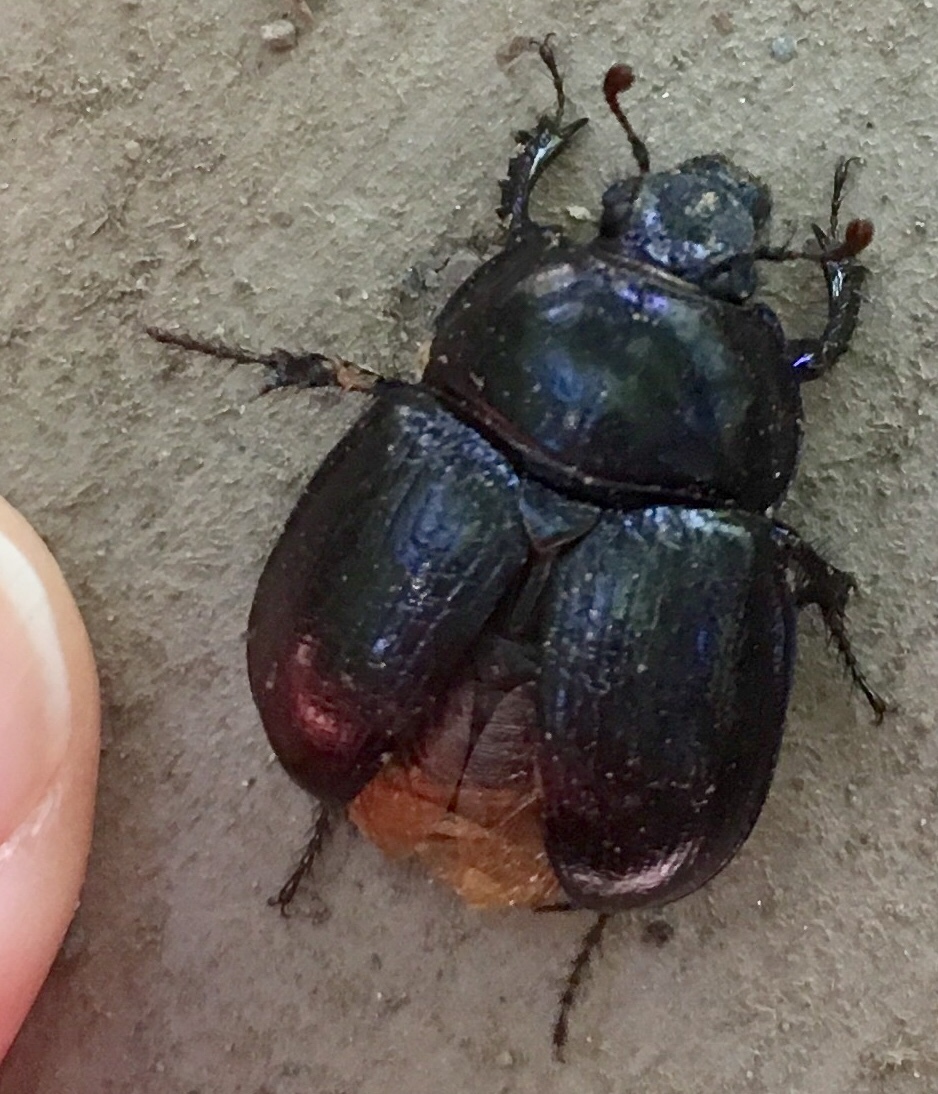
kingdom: Animalia
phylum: Arthropoda
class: Insecta
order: Coleoptera
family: Geotrupidae
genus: Anoplotrupes
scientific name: Anoplotrupes stercorosus
